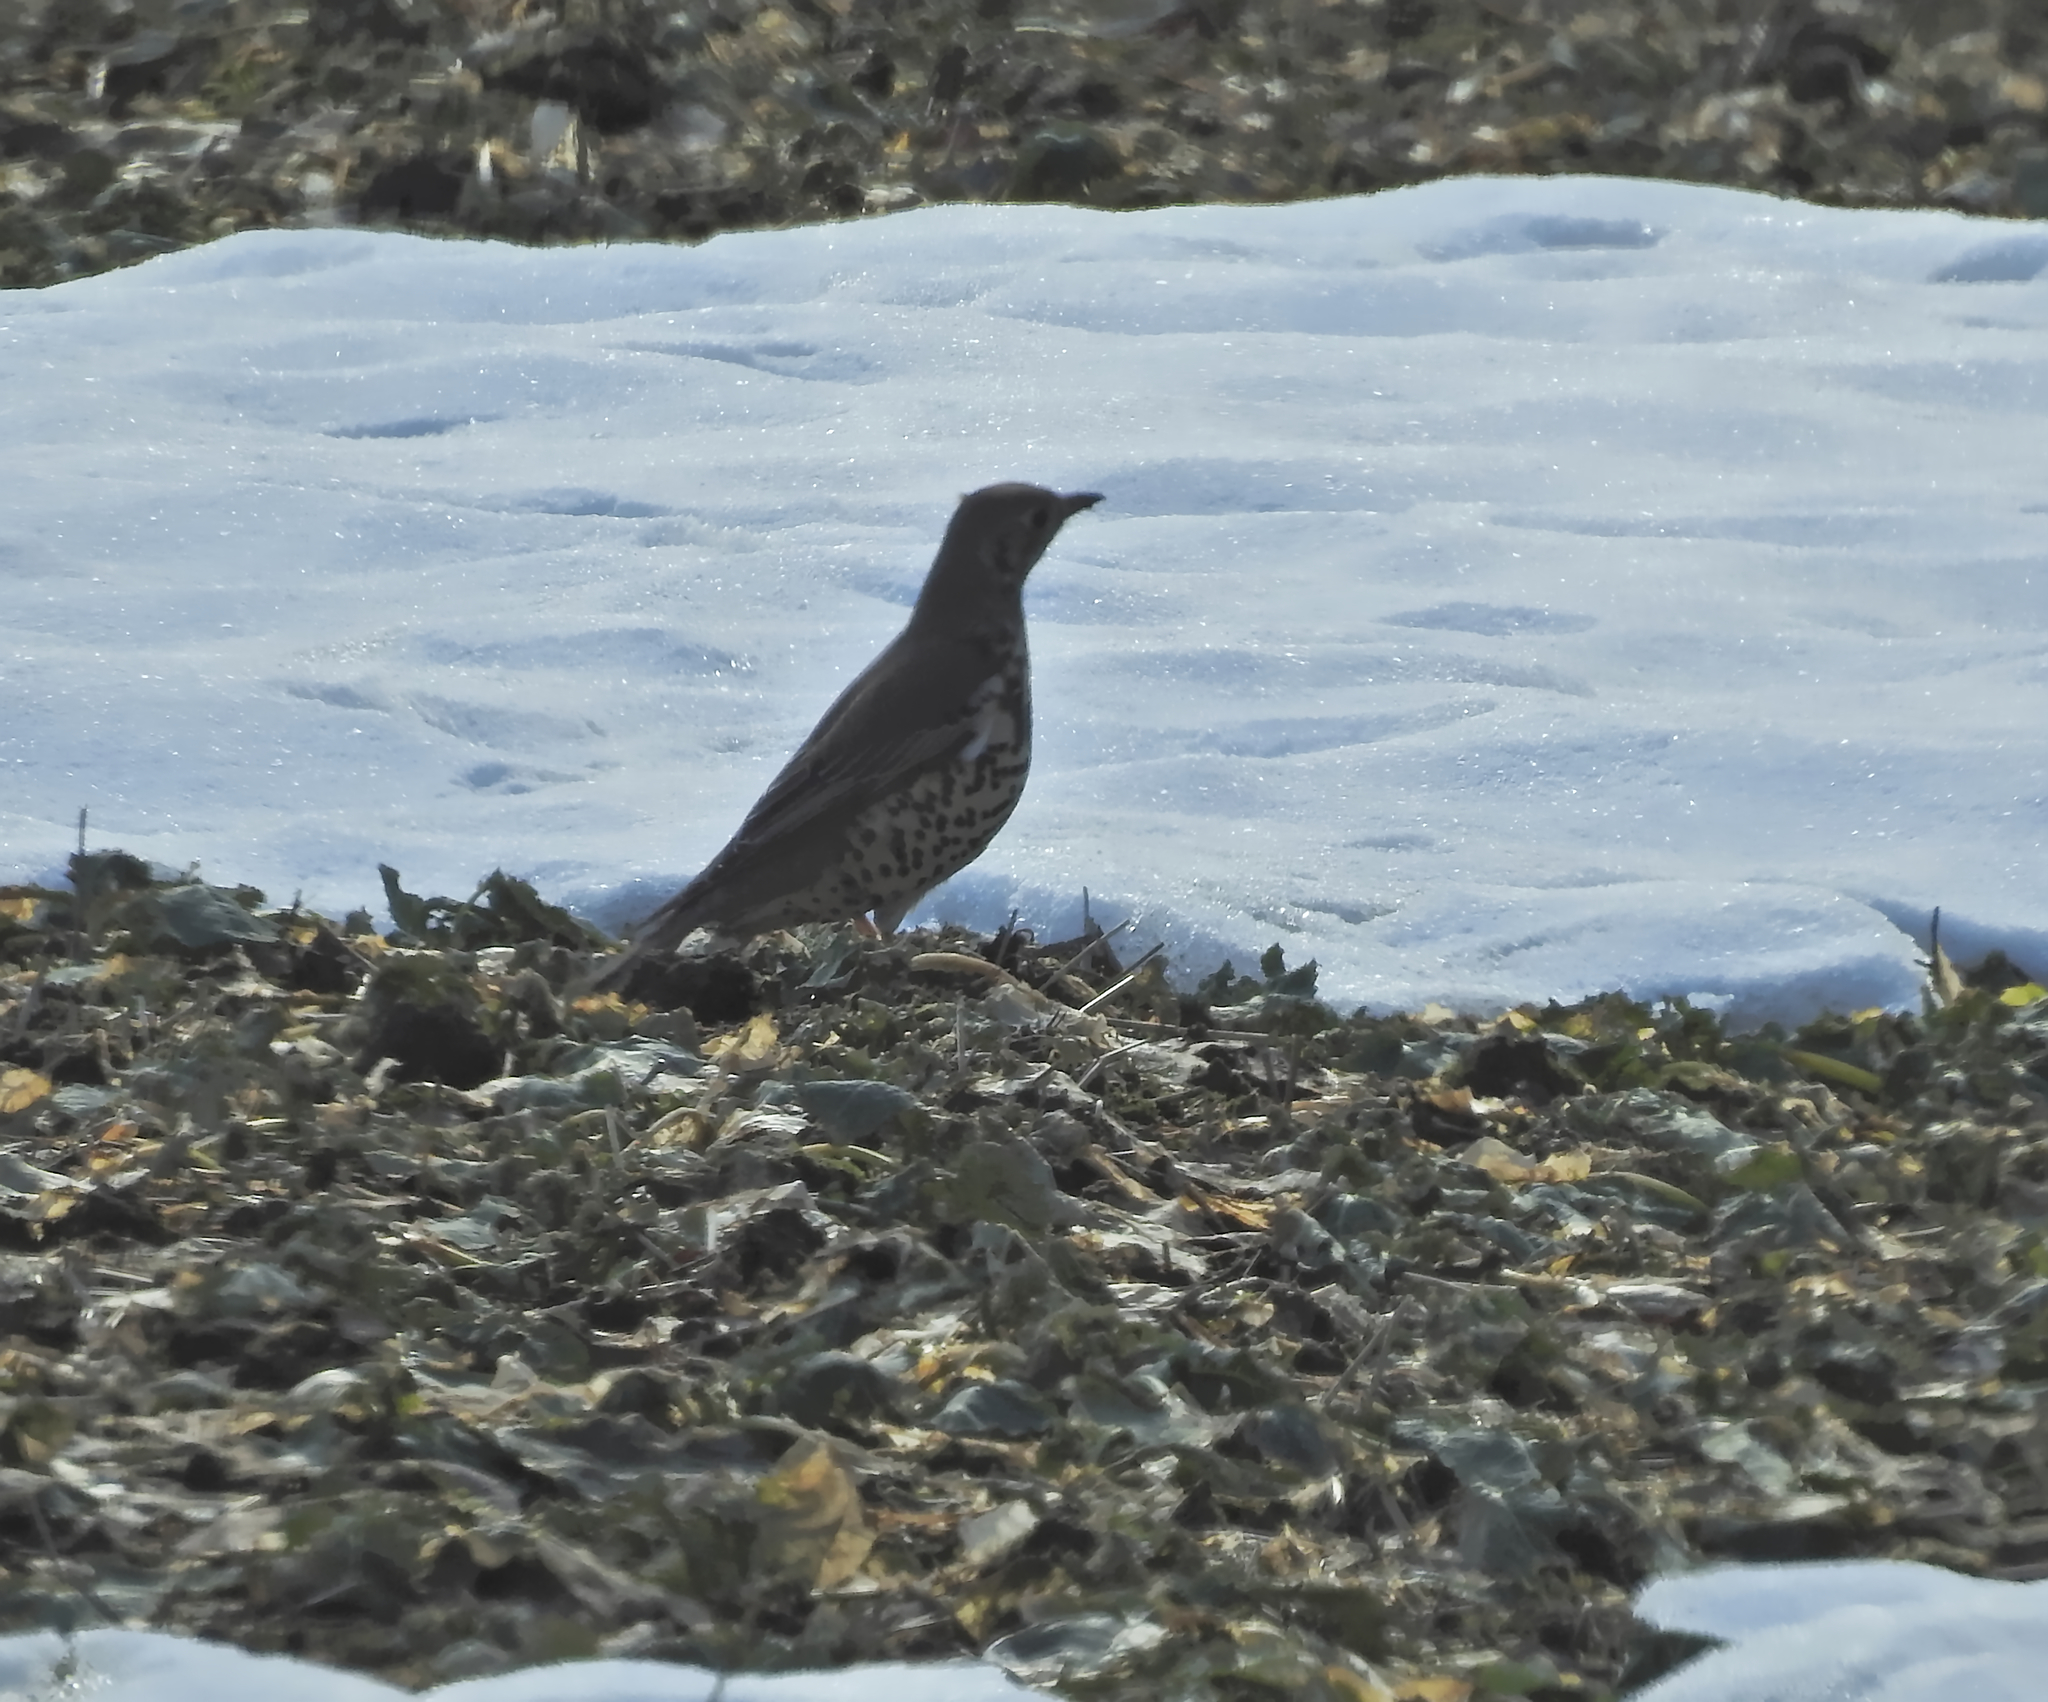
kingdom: Animalia
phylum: Chordata
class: Aves
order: Passeriformes
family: Turdidae
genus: Turdus
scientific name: Turdus viscivorus
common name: Mistle thrush
